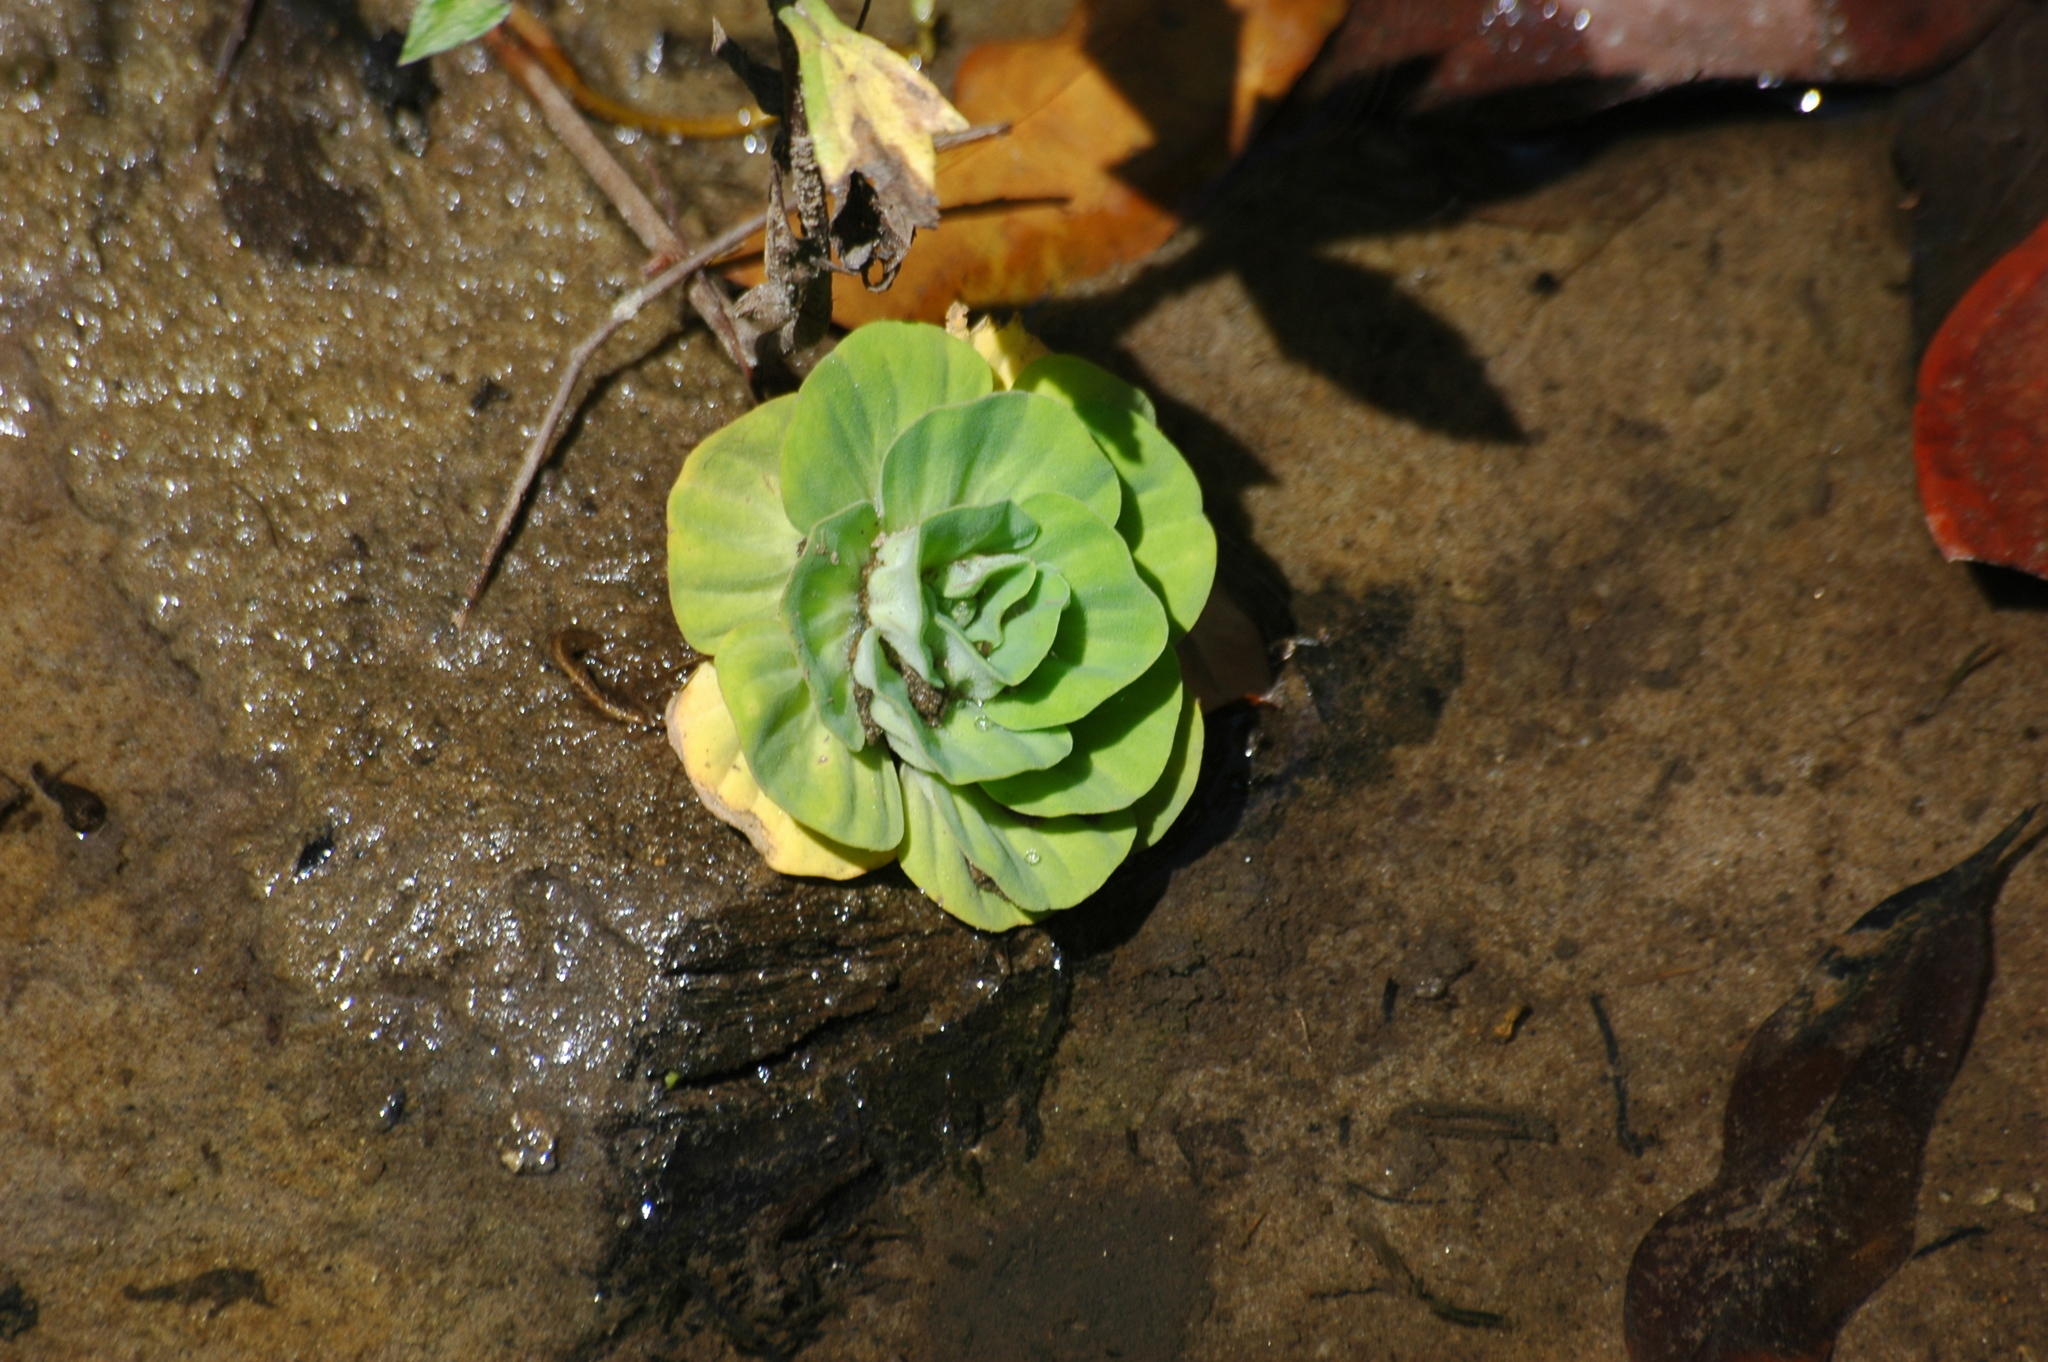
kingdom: Plantae
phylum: Tracheophyta
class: Liliopsida
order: Alismatales
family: Araceae
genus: Pistia
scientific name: Pistia stratiotes
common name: Water lettuce
